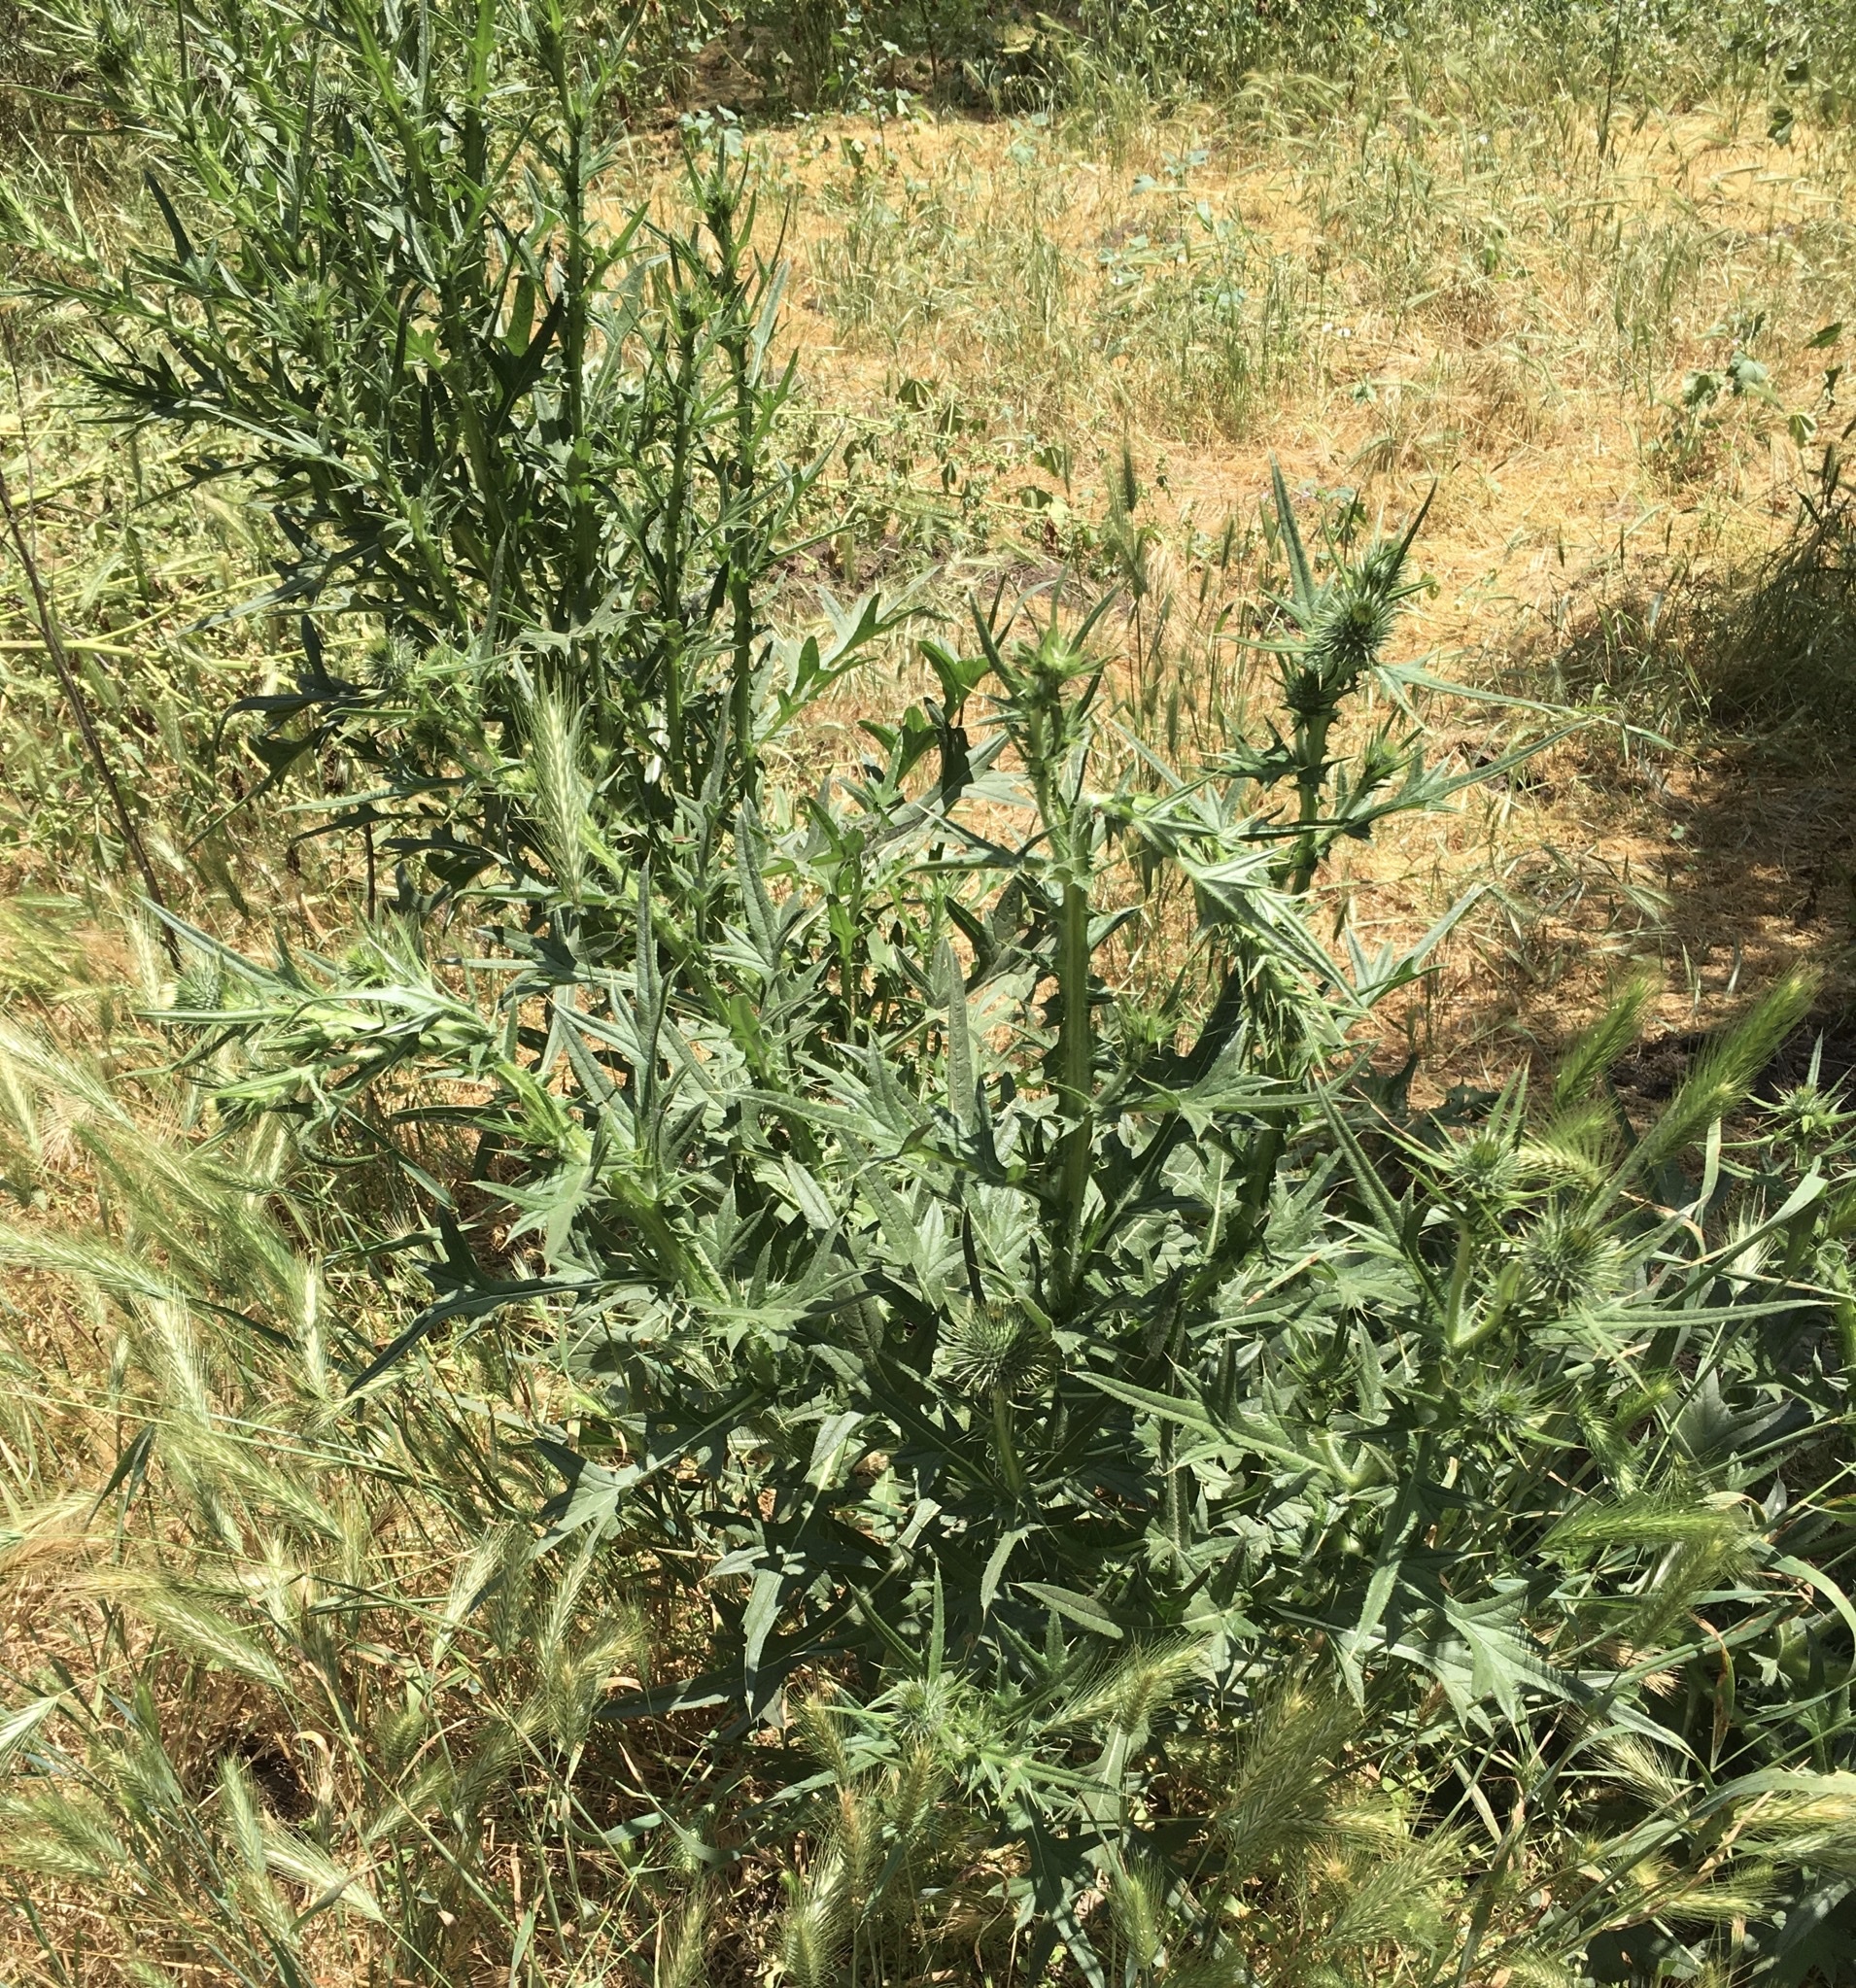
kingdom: Plantae
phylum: Tracheophyta
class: Magnoliopsida
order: Asterales
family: Asteraceae
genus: Cirsium
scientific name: Cirsium vulgare
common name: Bull thistle
